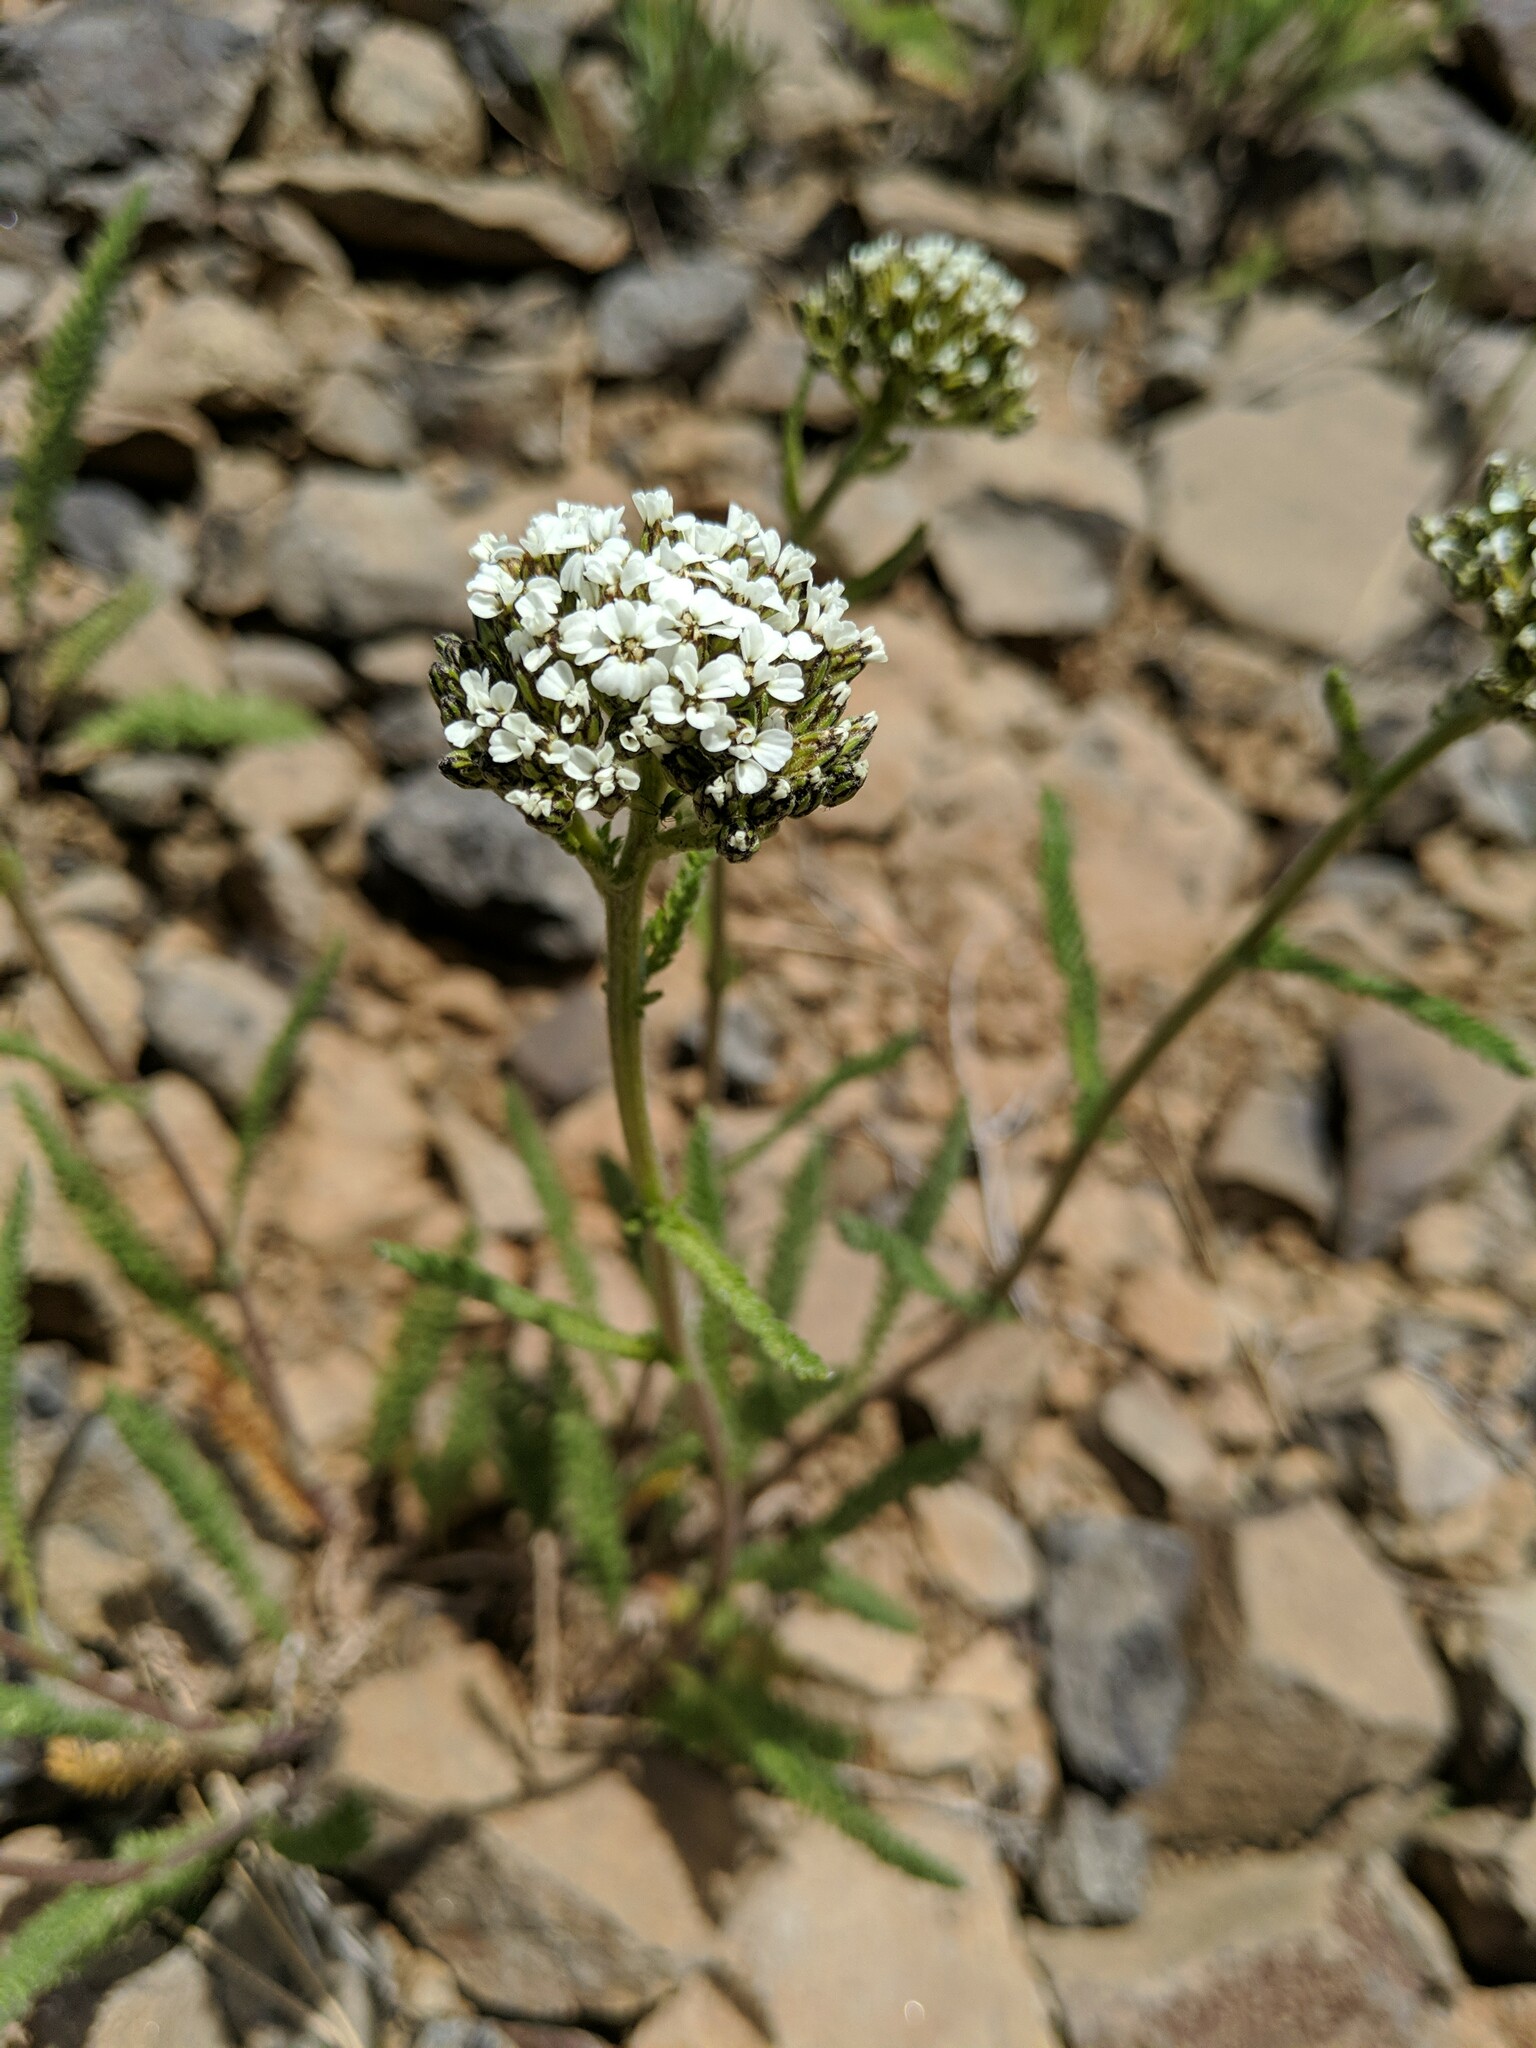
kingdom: Plantae
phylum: Tracheophyta
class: Magnoliopsida
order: Asterales
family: Asteraceae
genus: Achillea
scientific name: Achillea millefolium
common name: Yarrow
